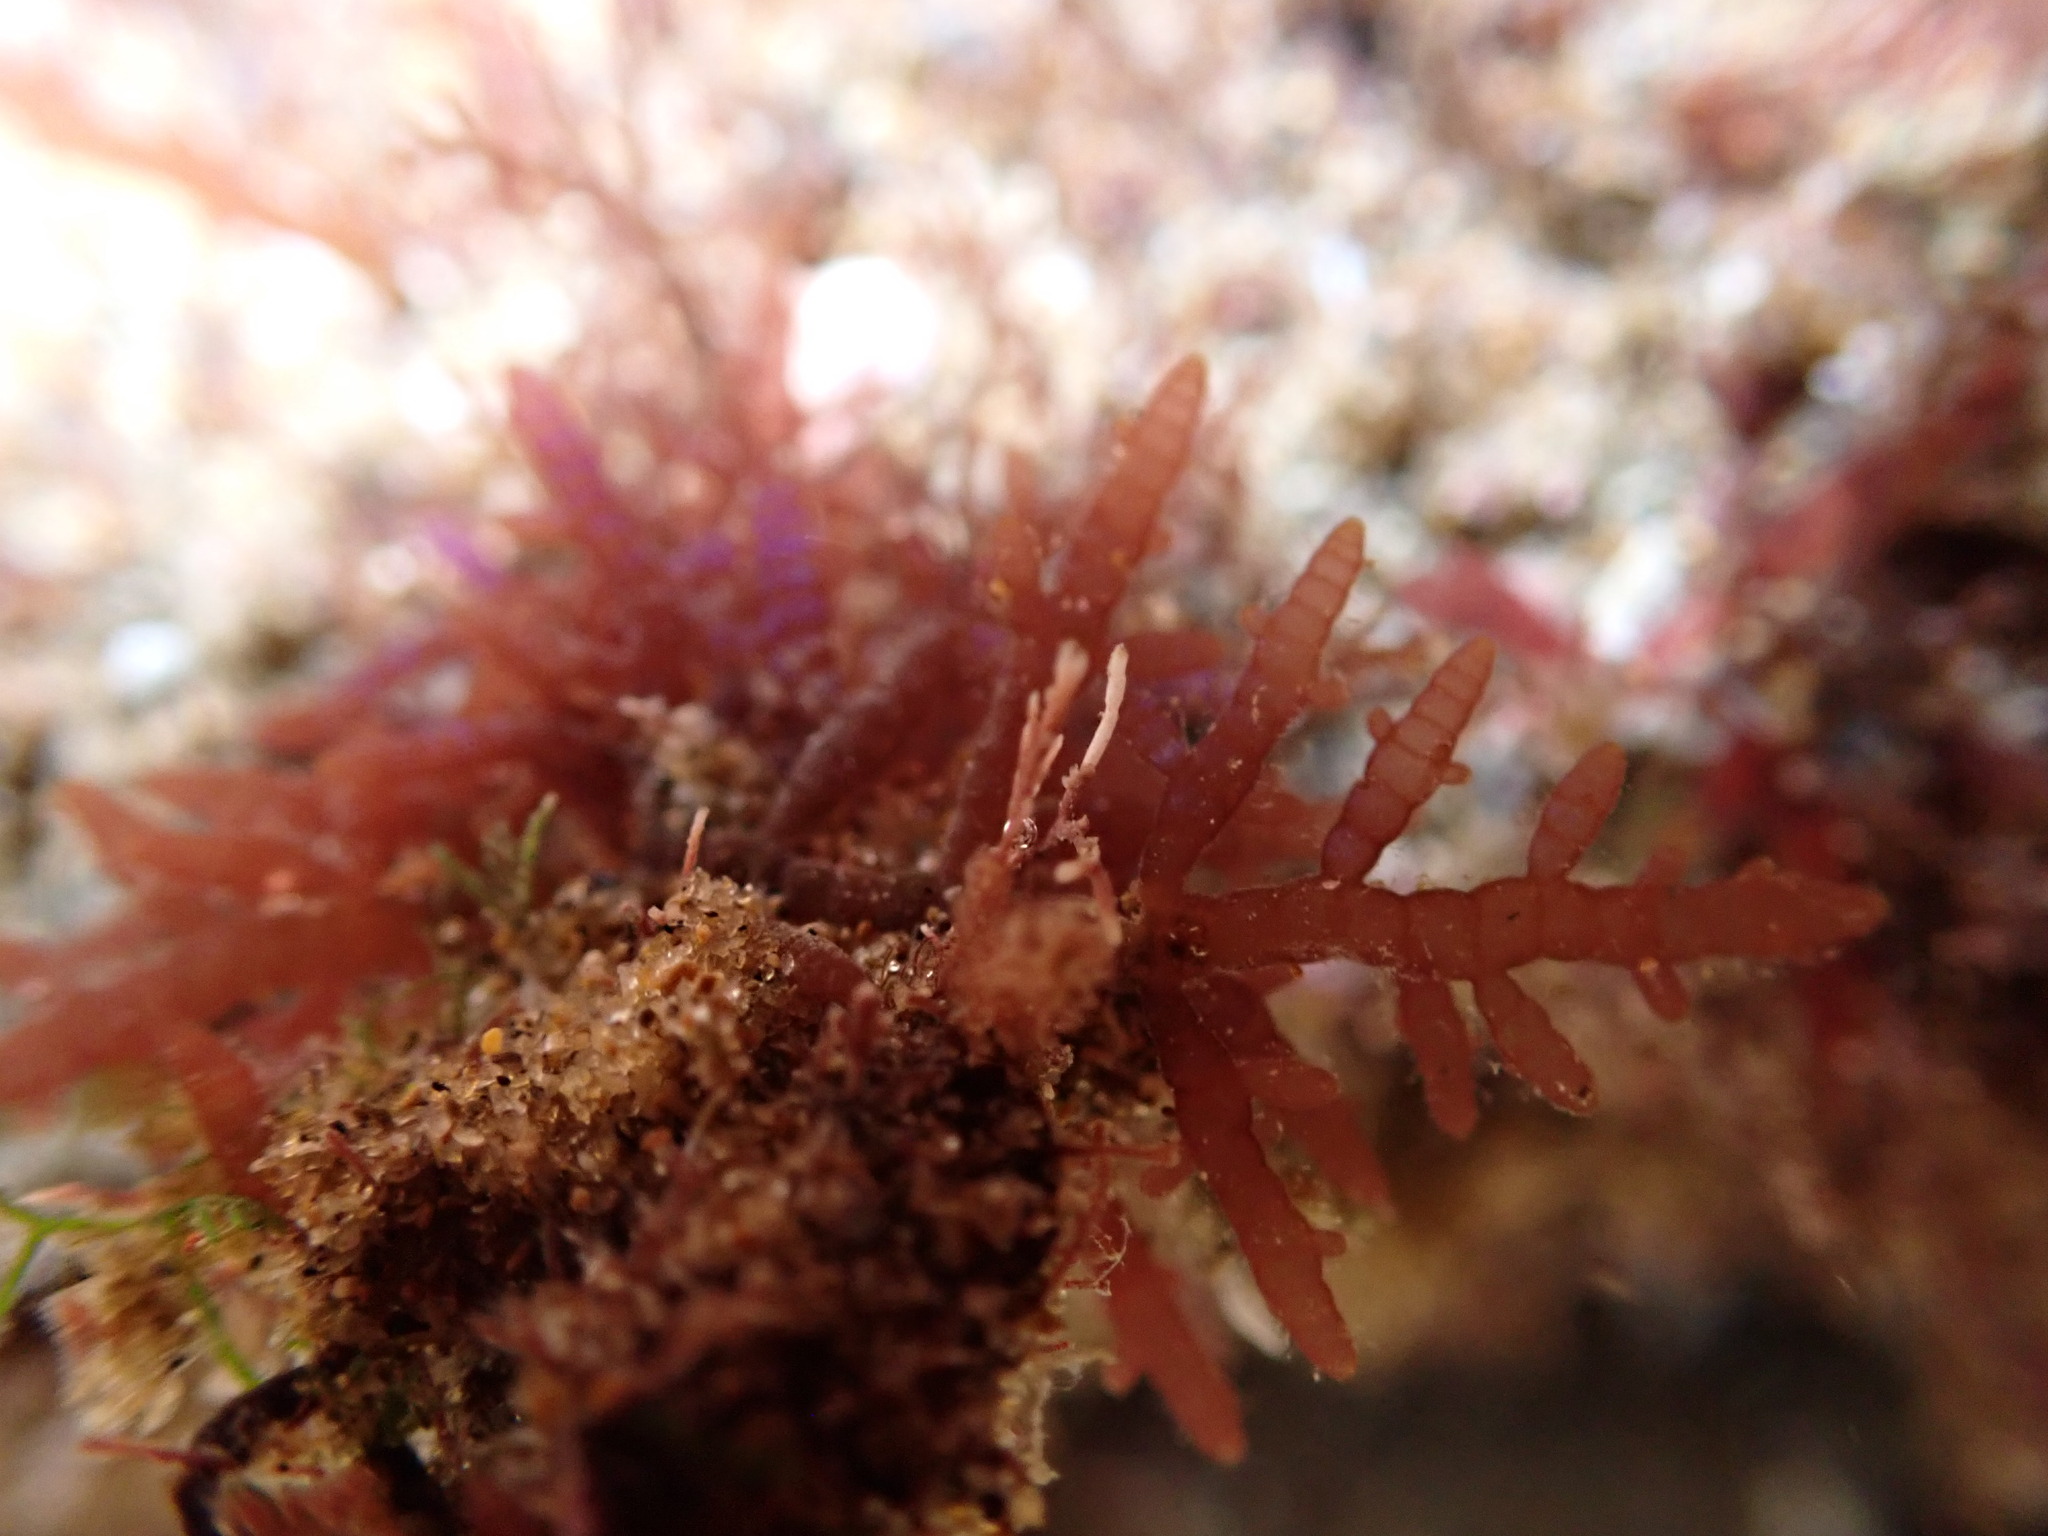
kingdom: Plantae
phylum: Rhodophyta
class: Florideophyceae
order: Rhodymeniales
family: Champiaceae
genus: Champia
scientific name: Champia parvula
